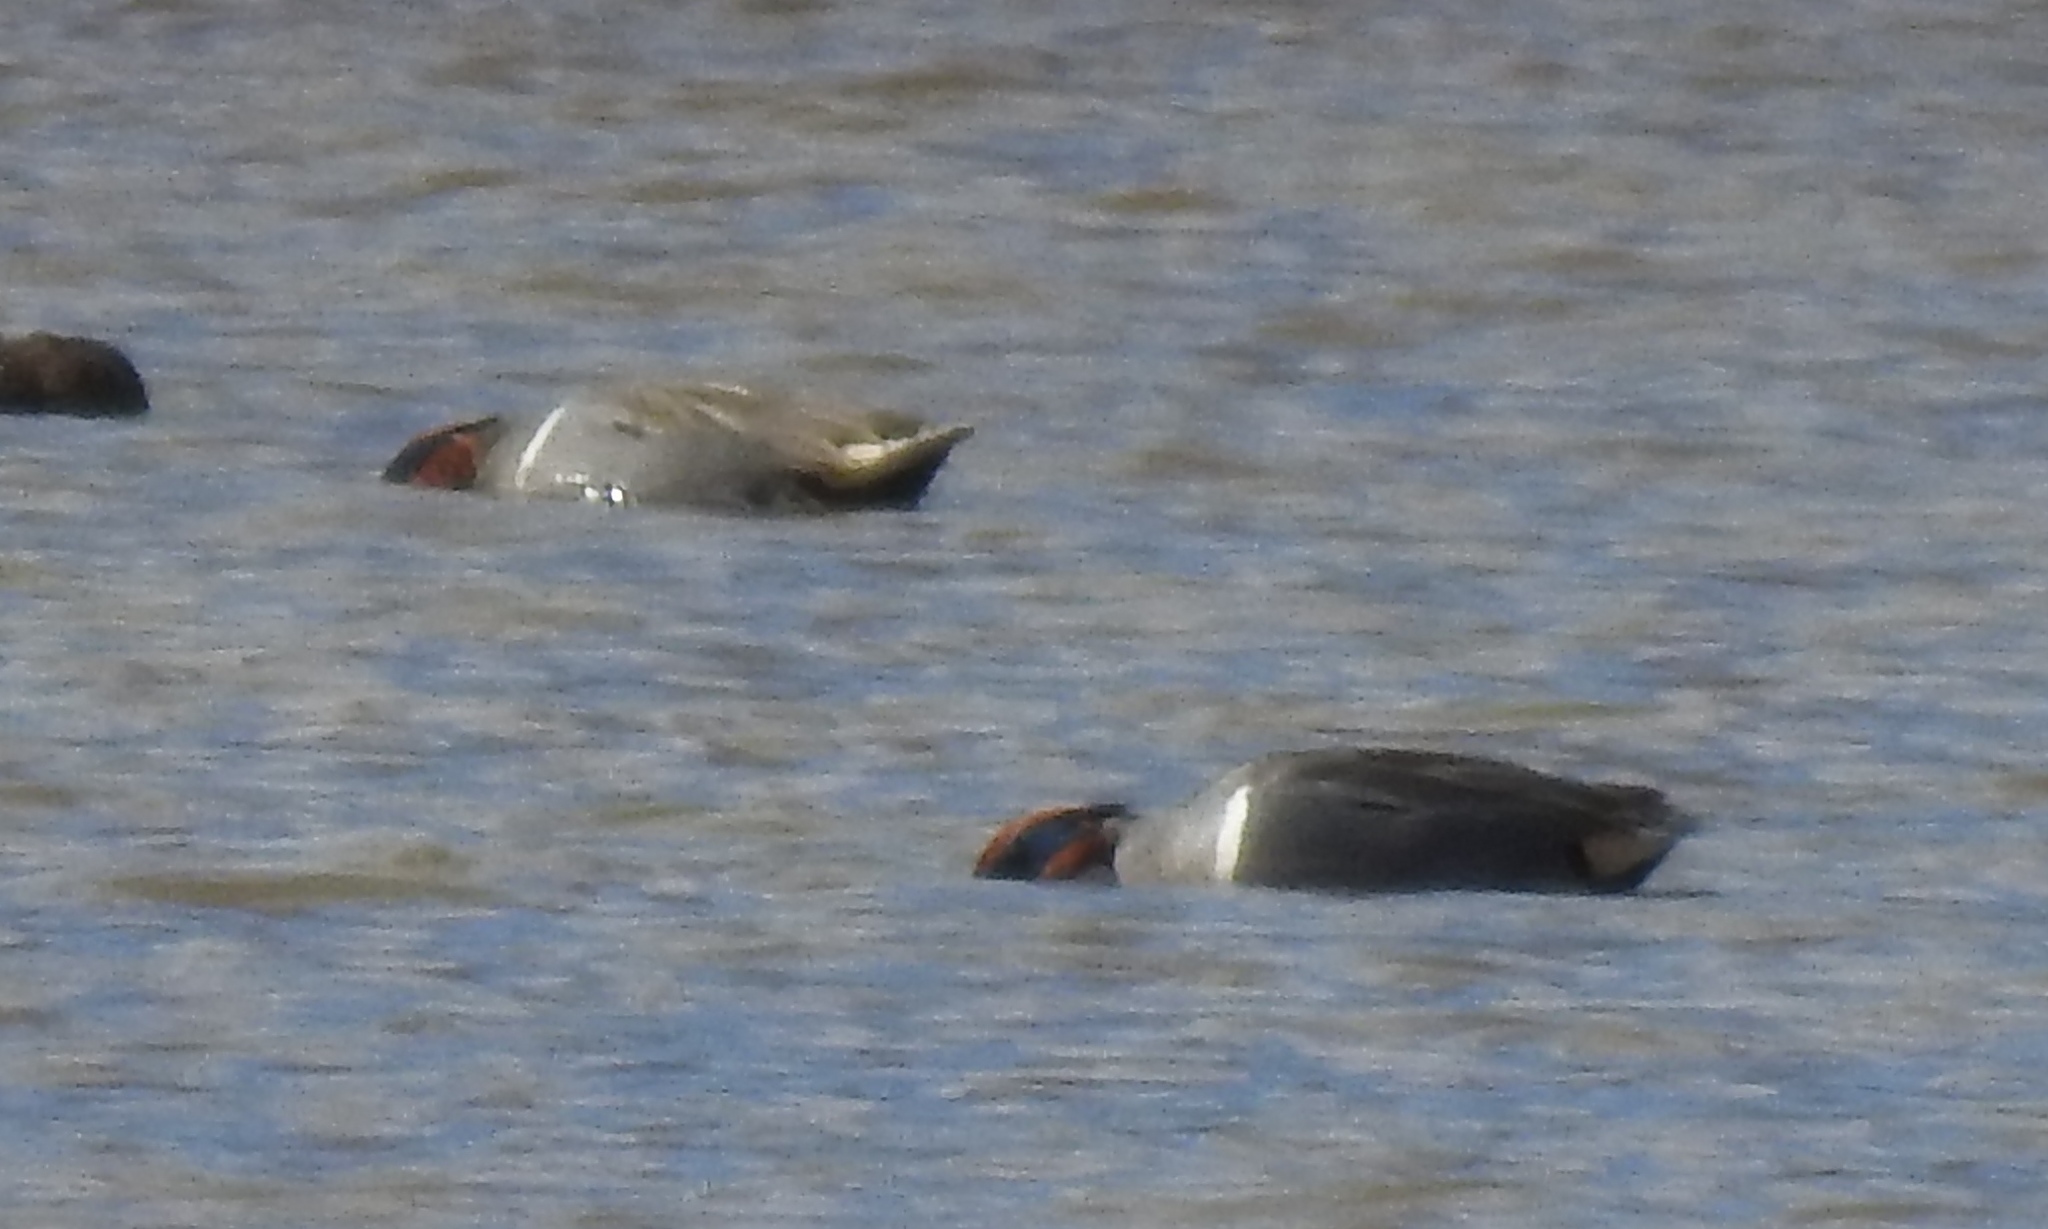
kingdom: Animalia
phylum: Chordata
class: Aves
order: Anseriformes
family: Anatidae
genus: Anas
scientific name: Anas crecca
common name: Eurasian teal
